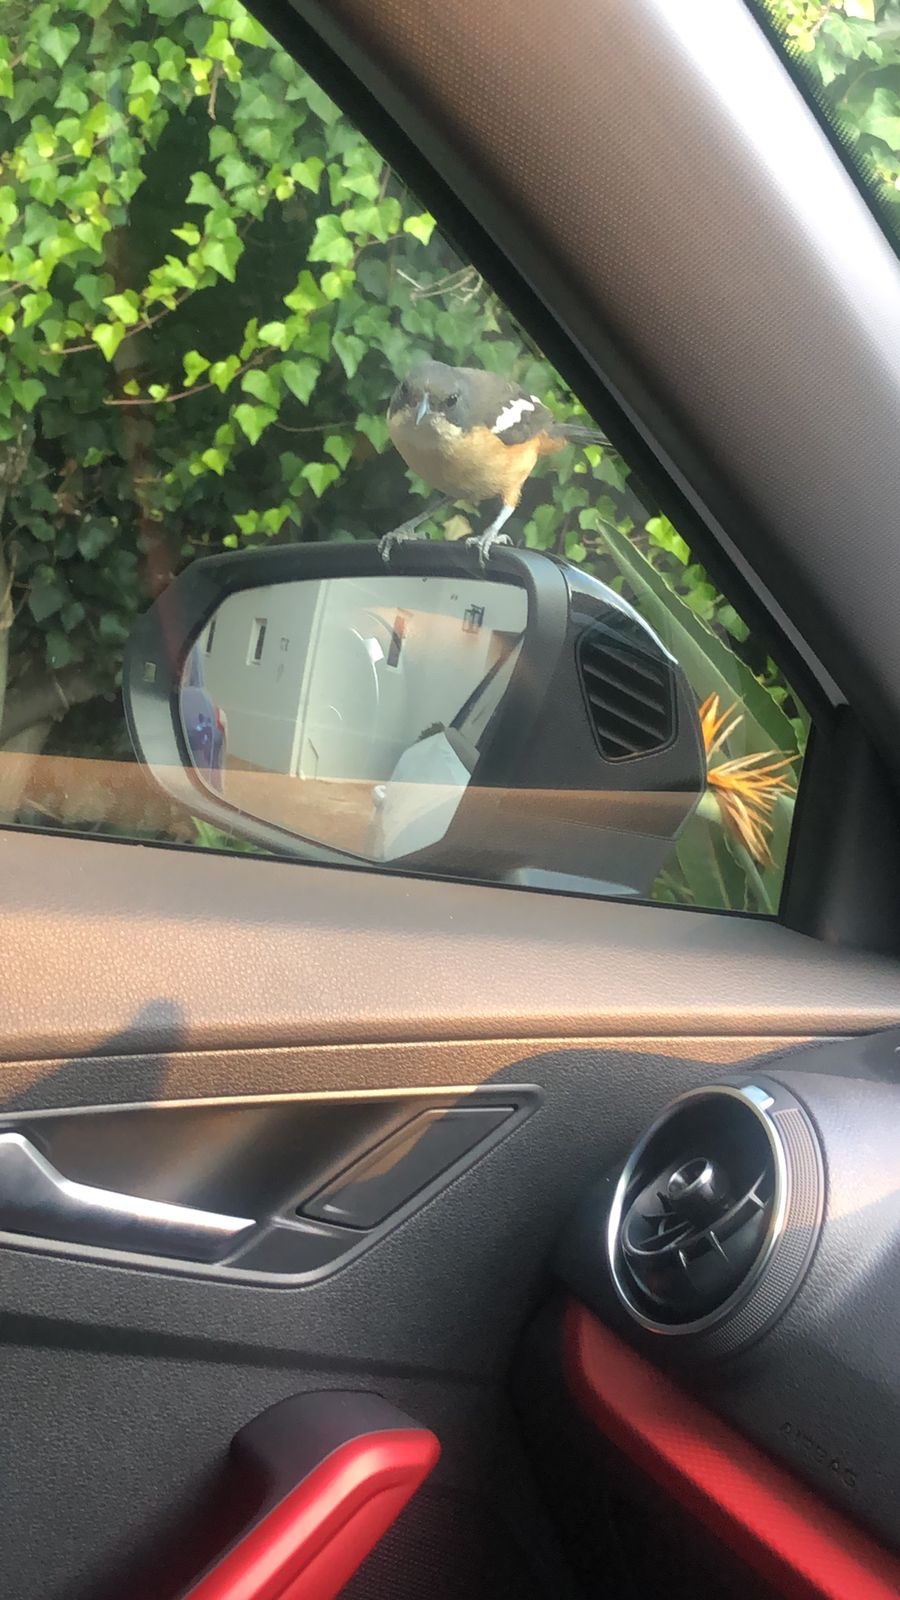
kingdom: Animalia
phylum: Chordata
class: Aves
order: Passeriformes
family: Malaconotidae
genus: Laniarius
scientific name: Laniarius ferrugineus
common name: Southern boubou
